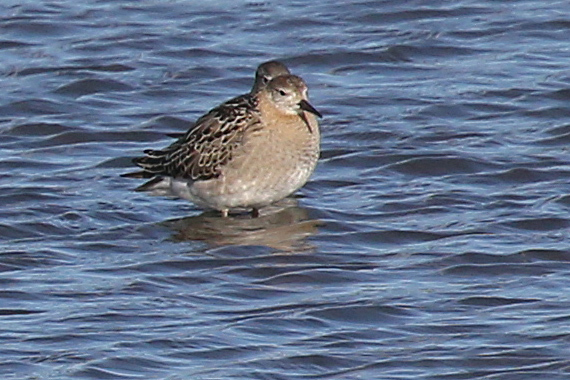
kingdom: Animalia
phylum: Chordata
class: Aves
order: Charadriiformes
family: Scolopacidae
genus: Calidris
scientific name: Calidris pugnax
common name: Ruff
